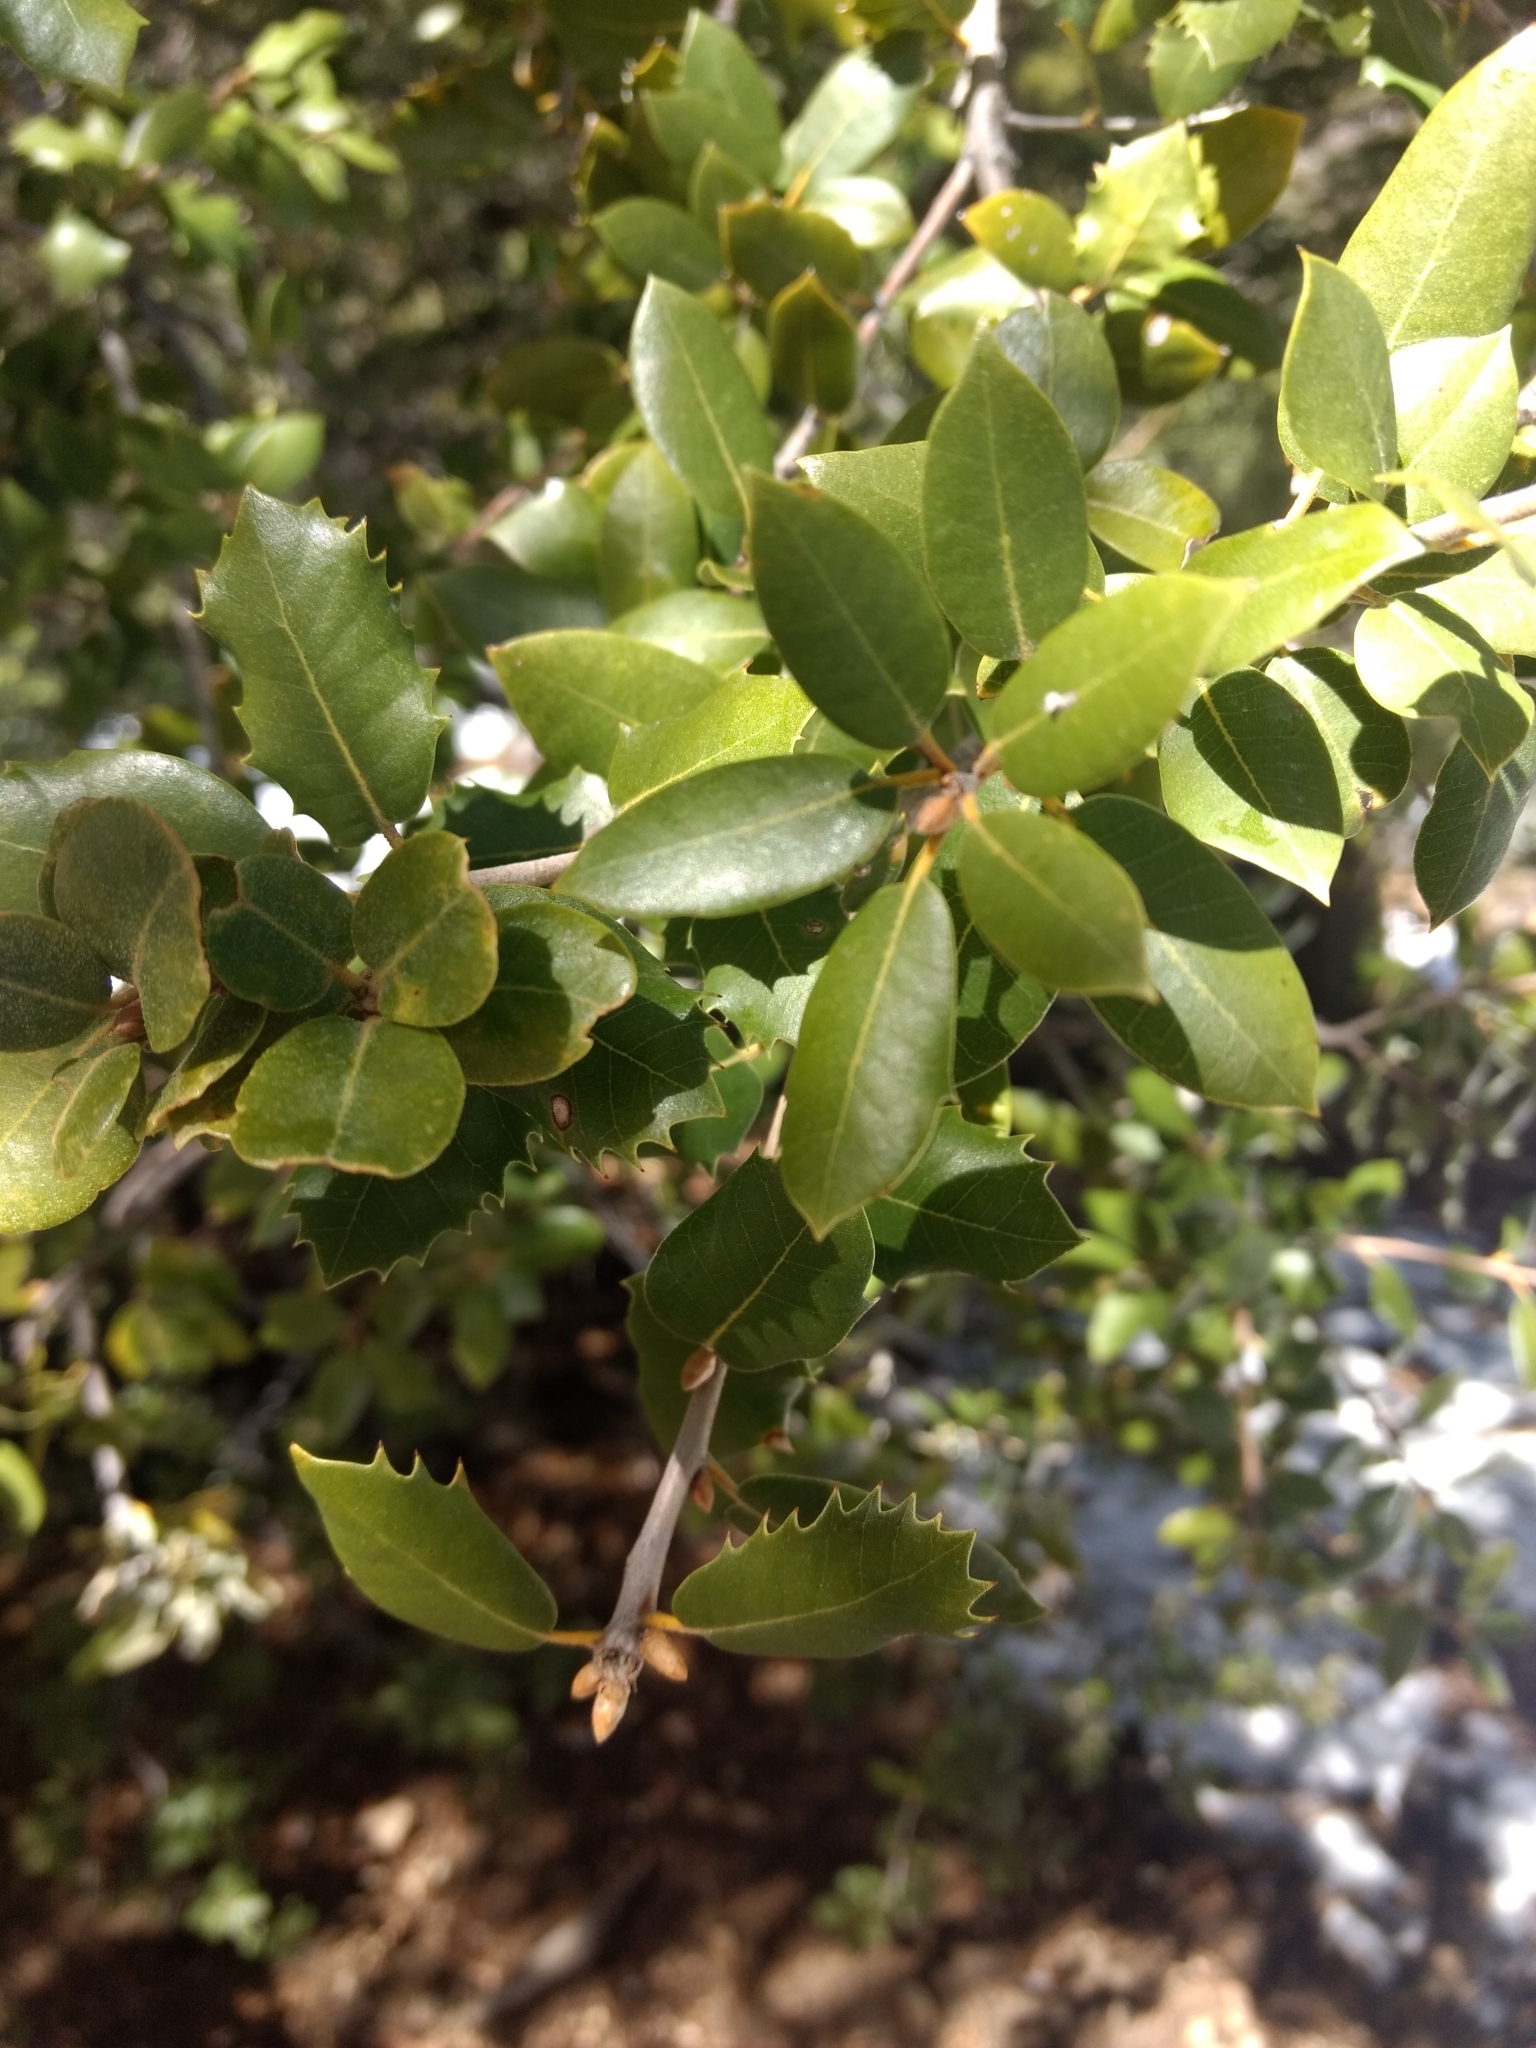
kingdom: Plantae
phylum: Tracheophyta
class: Magnoliopsida
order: Fagales
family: Fagaceae
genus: Quercus
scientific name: Quercus chrysolepis
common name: Canyon live oak
